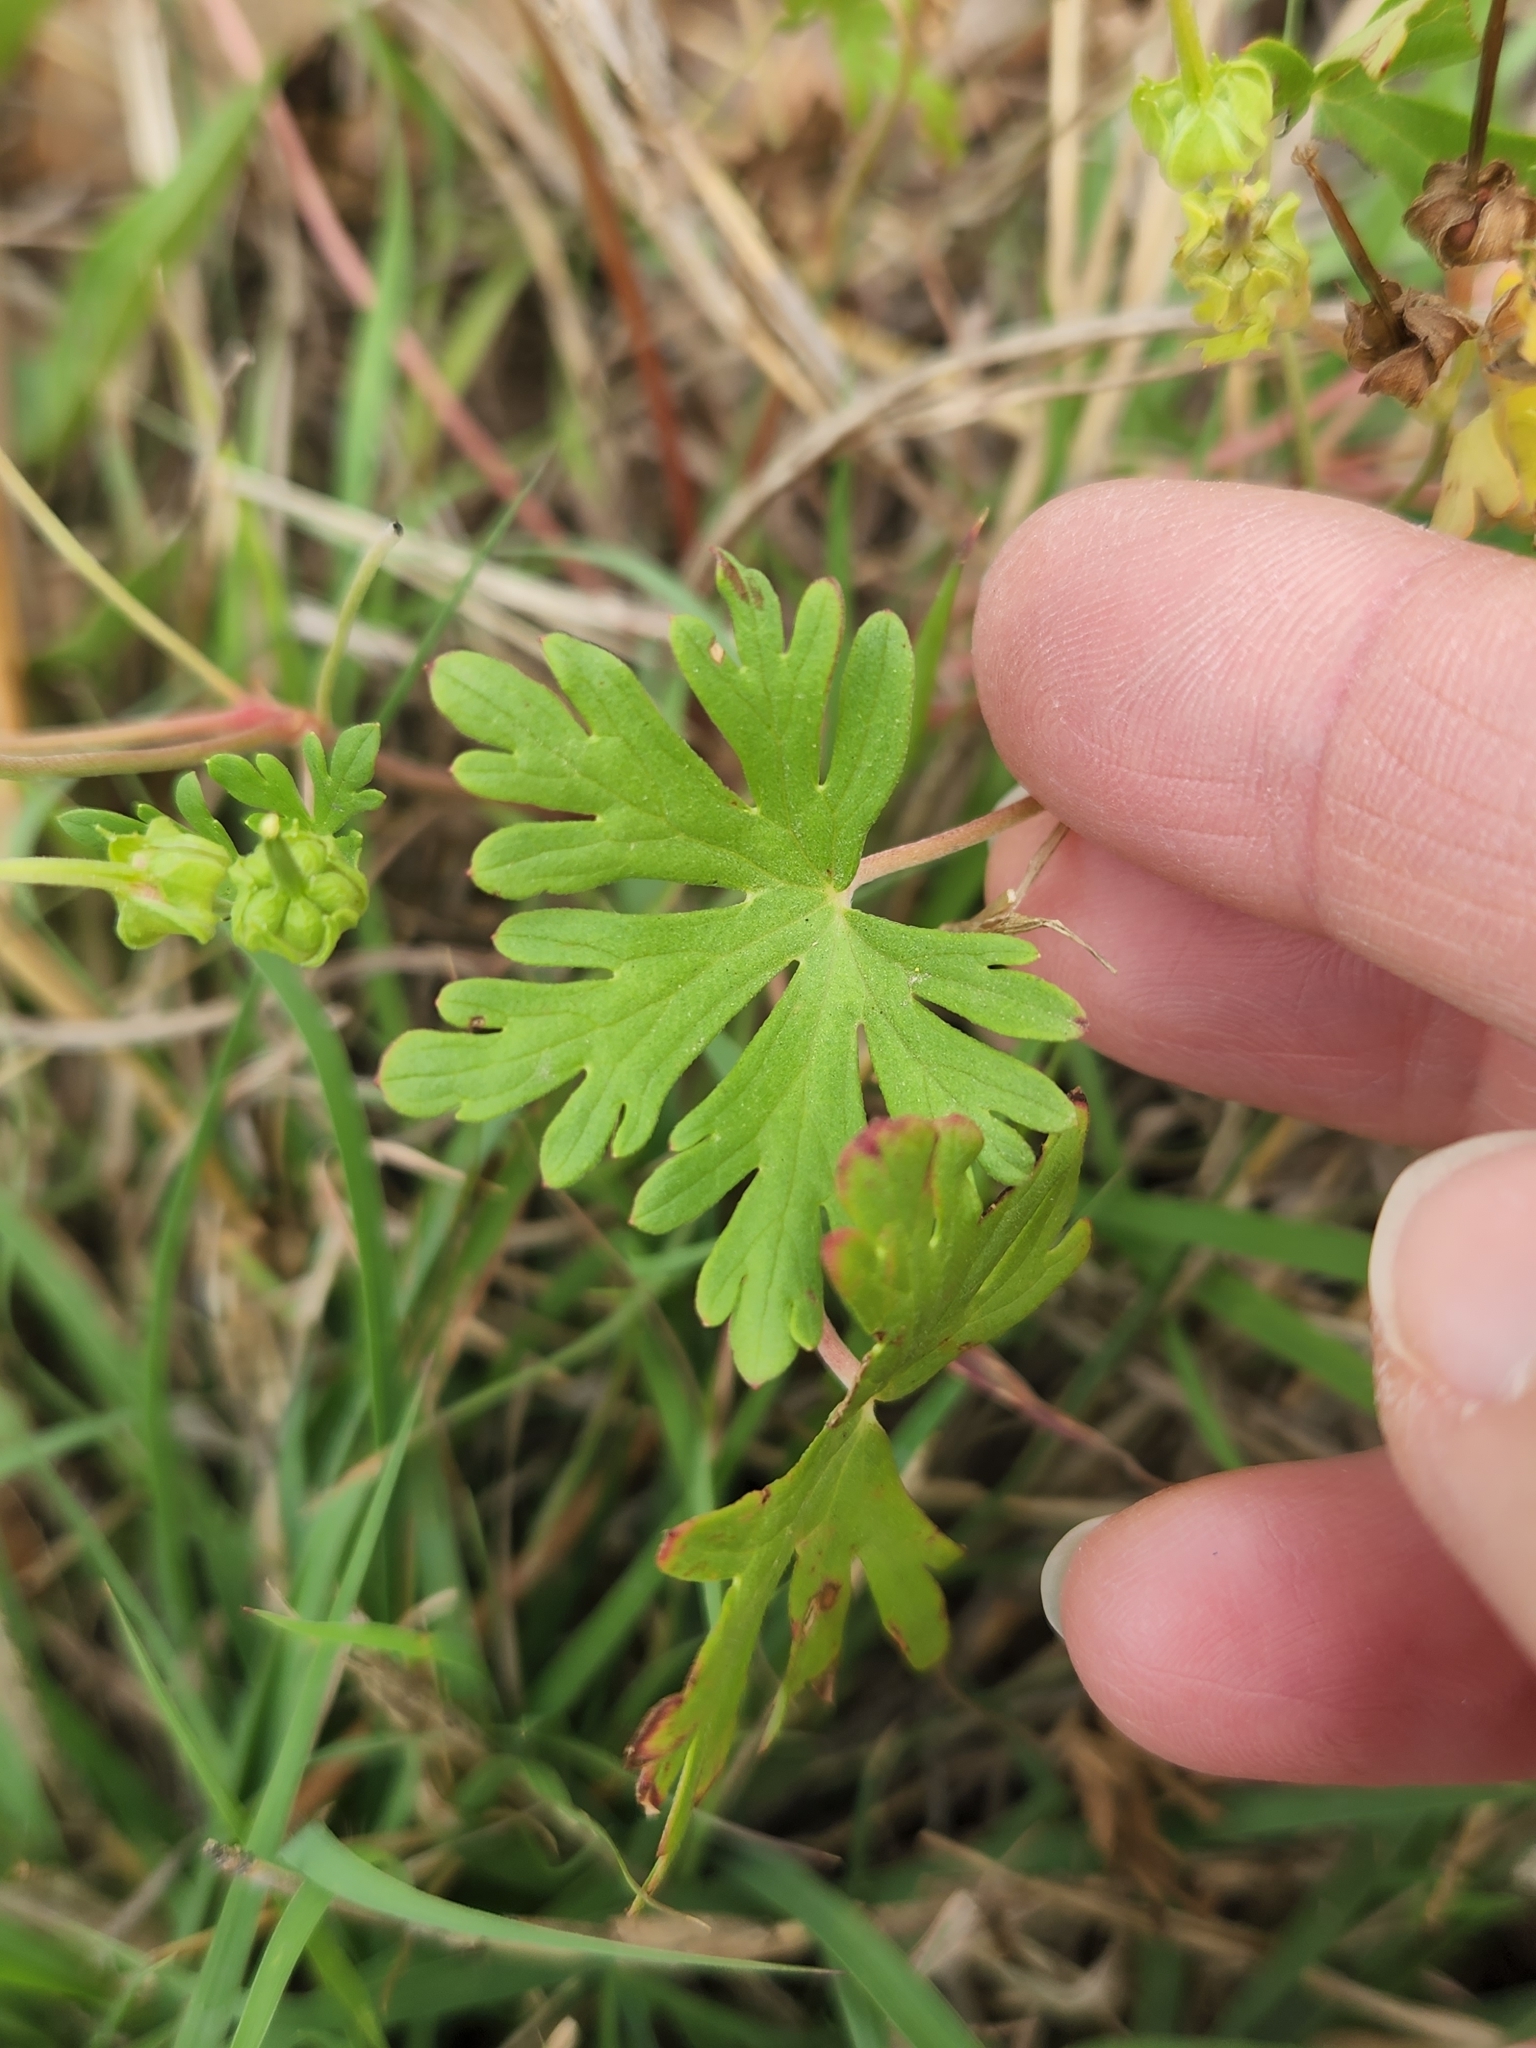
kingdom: Plantae
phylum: Tracheophyta
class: Magnoliopsida
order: Geraniales
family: Geraniaceae
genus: Geranium
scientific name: Geranium carolinianum
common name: Carolina crane's-bill
